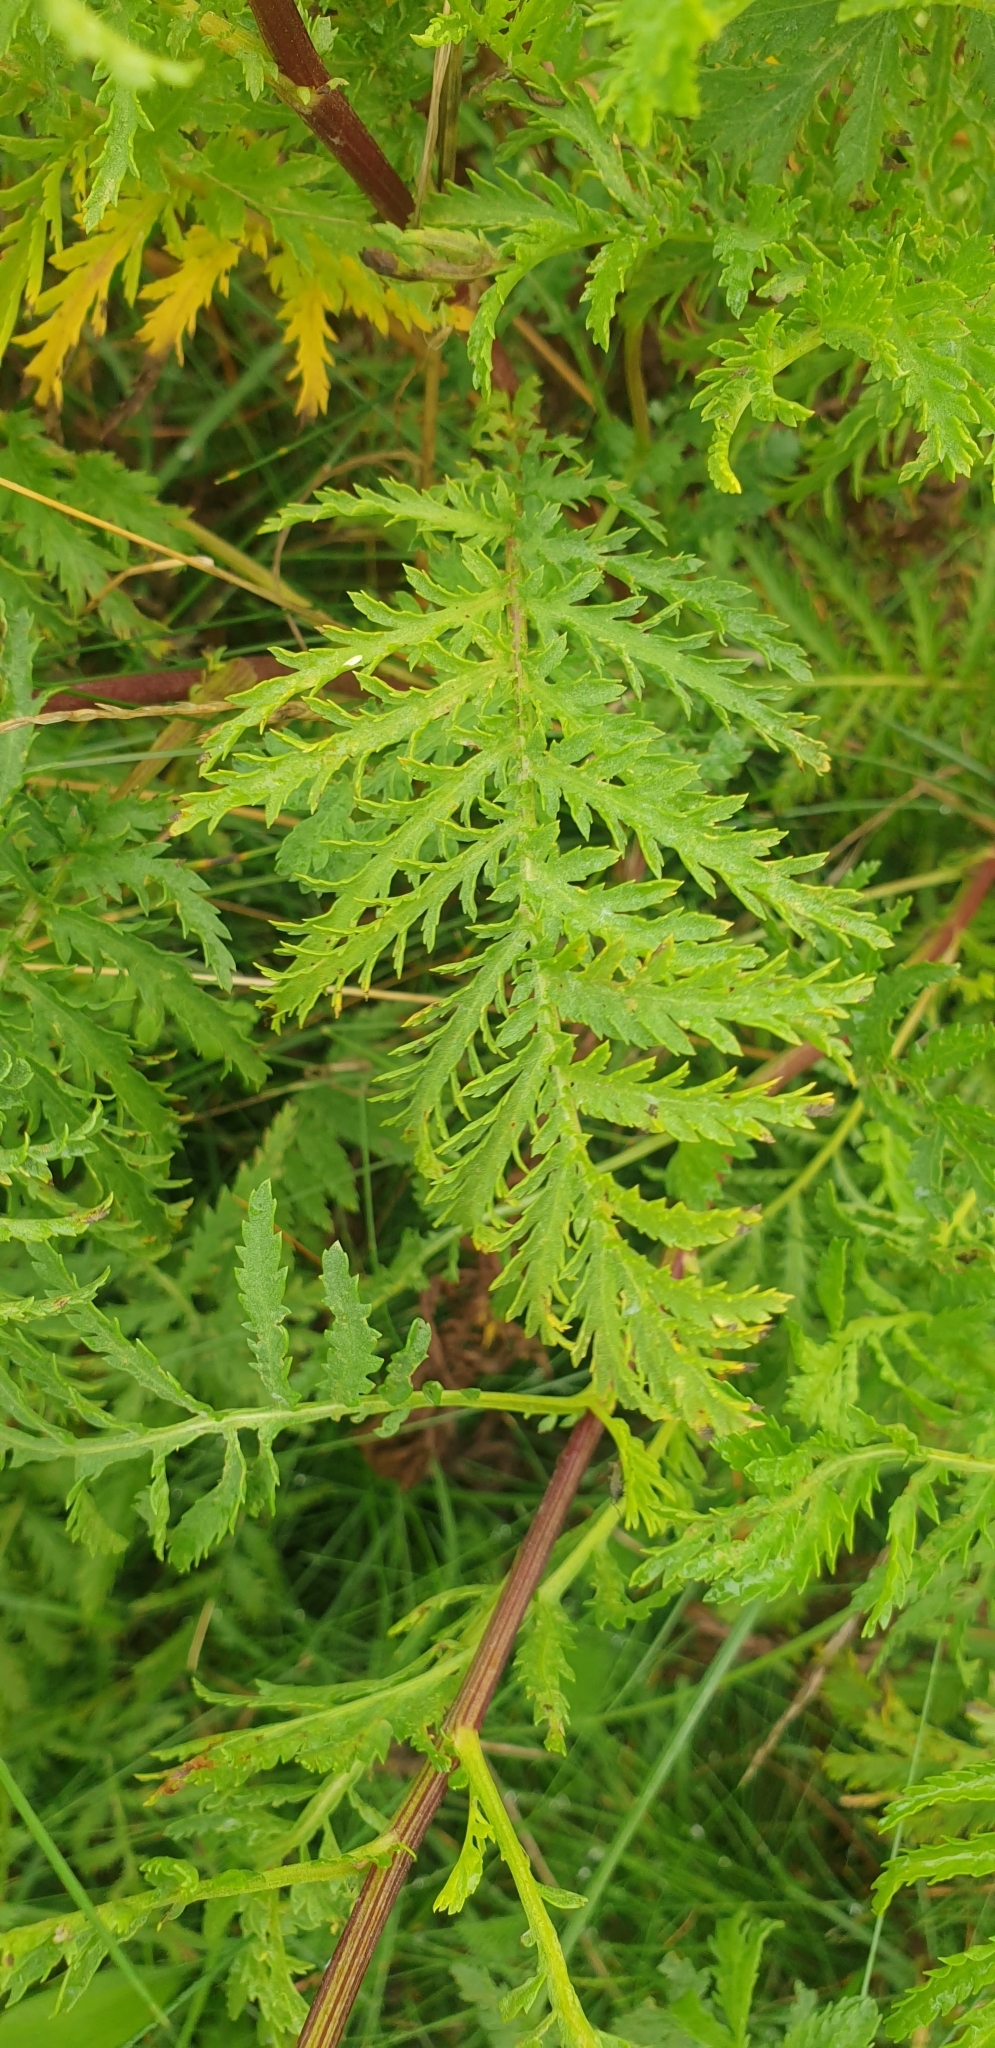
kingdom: Plantae
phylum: Tracheophyta
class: Magnoliopsida
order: Asterales
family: Asteraceae
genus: Tanacetum
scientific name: Tanacetum vulgare
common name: Common tansy
